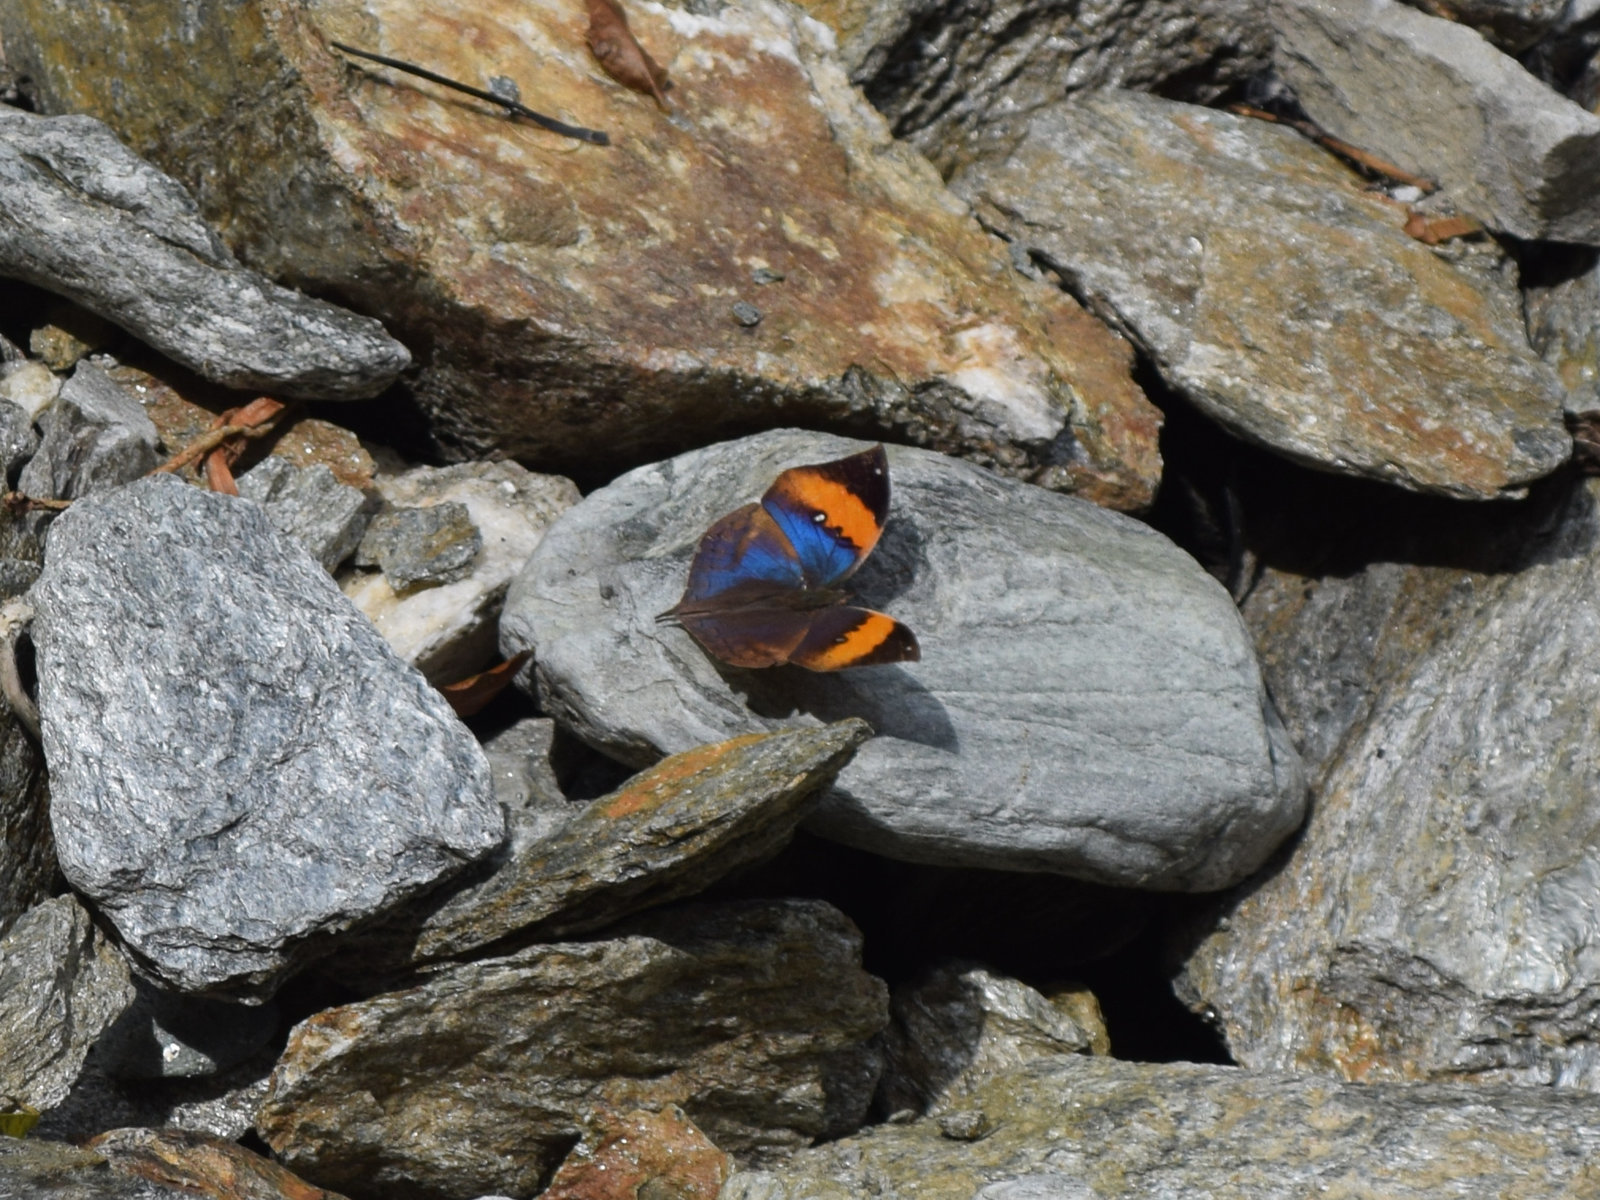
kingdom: Animalia
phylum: Arthropoda
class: Insecta
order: Lepidoptera
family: Nymphalidae
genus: Kallima
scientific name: Kallima inachus
